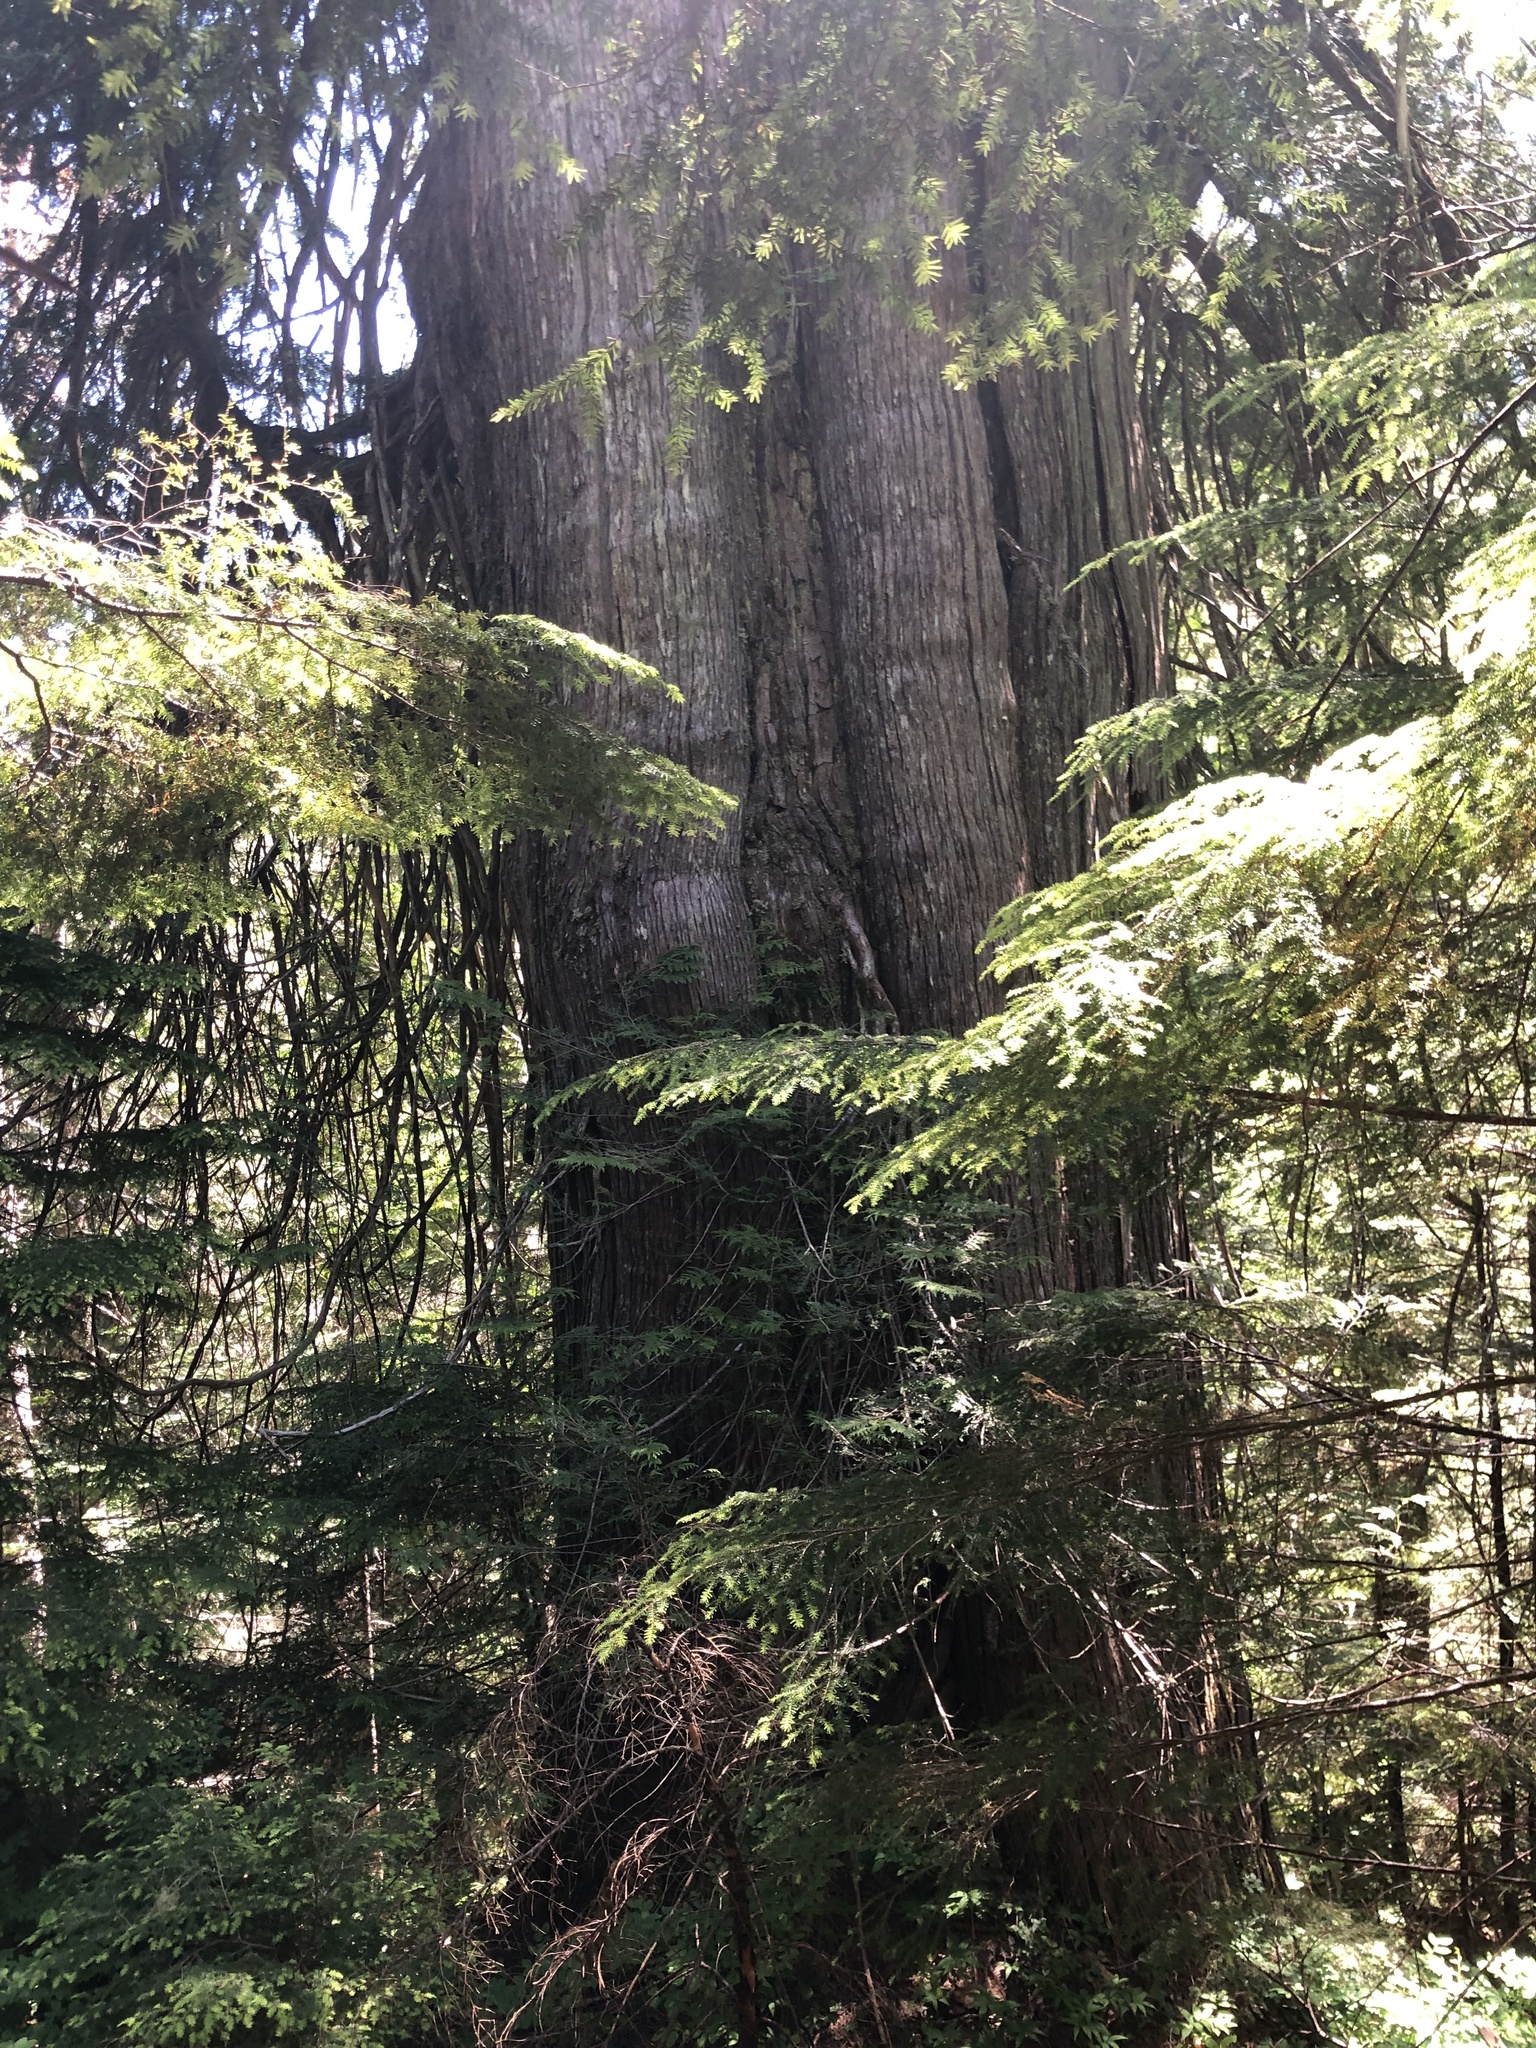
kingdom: Plantae
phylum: Tracheophyta
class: Pinopsida
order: Pinales
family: Cupressaceae
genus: Thuja
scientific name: Thuja plicata
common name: Western red-cedar
